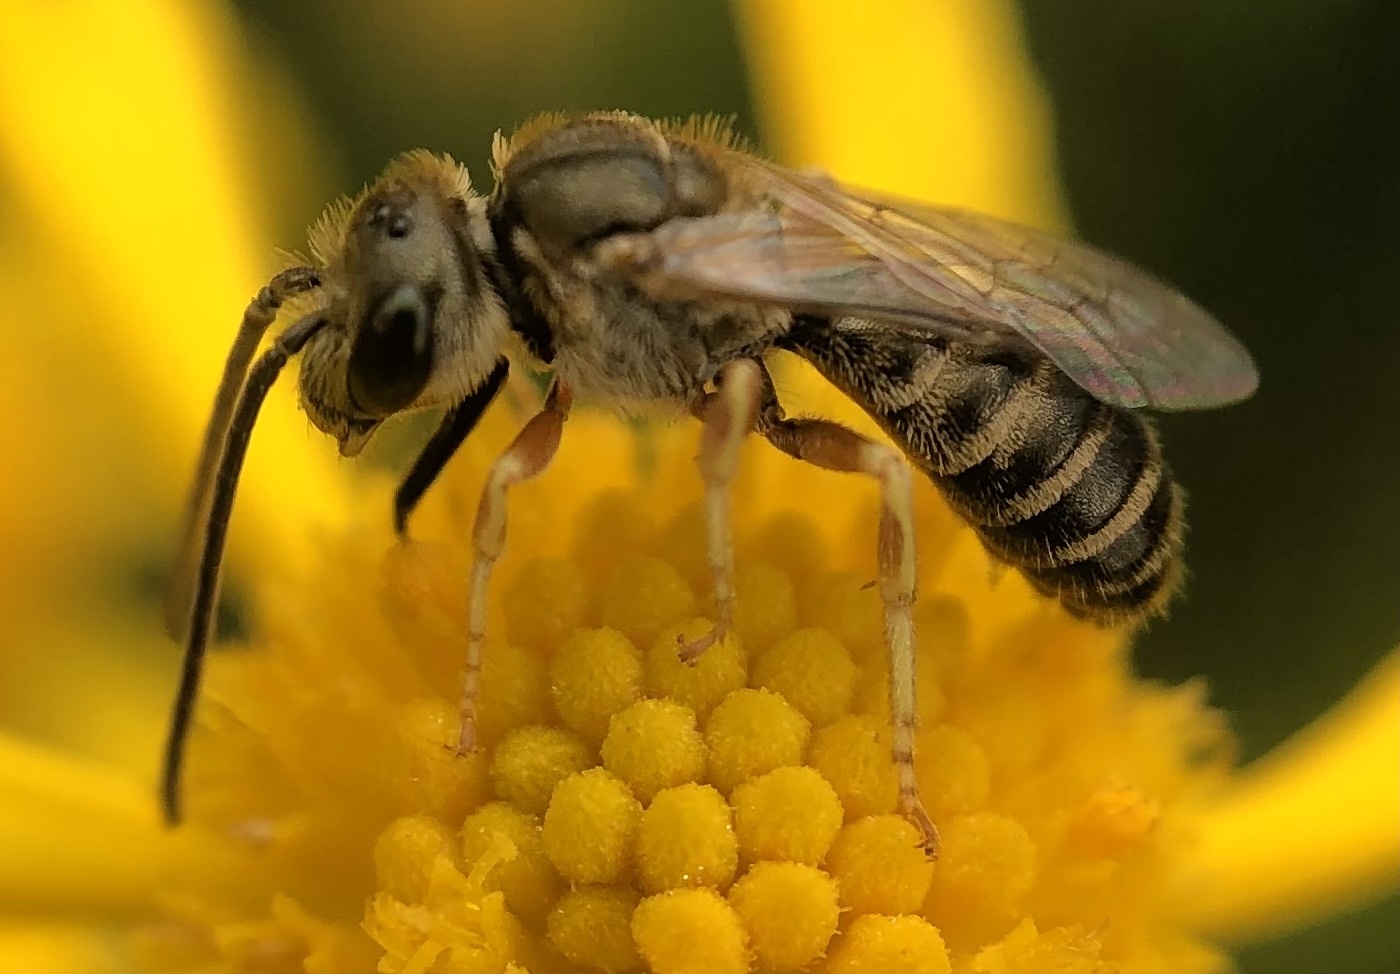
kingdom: Animalia
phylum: Arthropoda
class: Insecta
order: Hymenoptera
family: Halictidae
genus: Halictus
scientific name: Halictus confusus
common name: Southern bronze furrow bee
